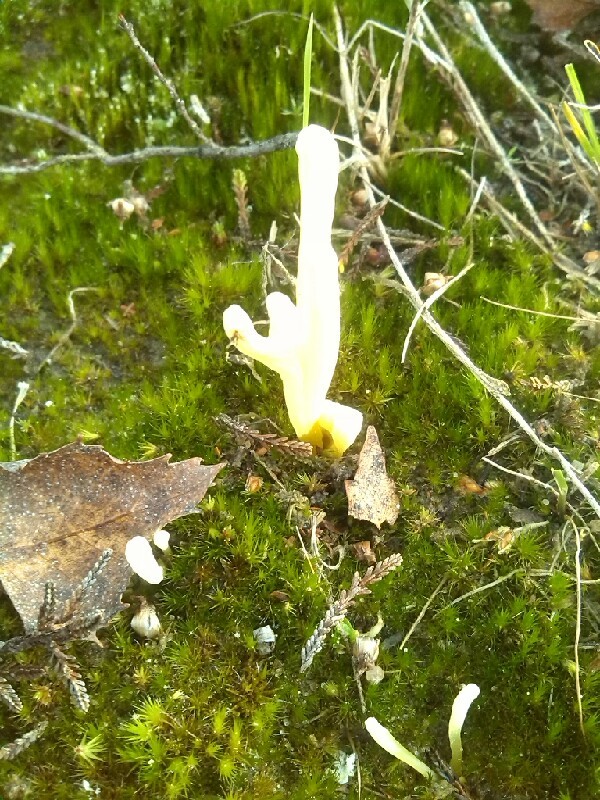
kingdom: Fungi
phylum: Basidiomycota
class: Agaricomycetes
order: Agaricales
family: Clavariaceae
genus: Clavaria
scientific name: Clavaria argillacea
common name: Moor club
